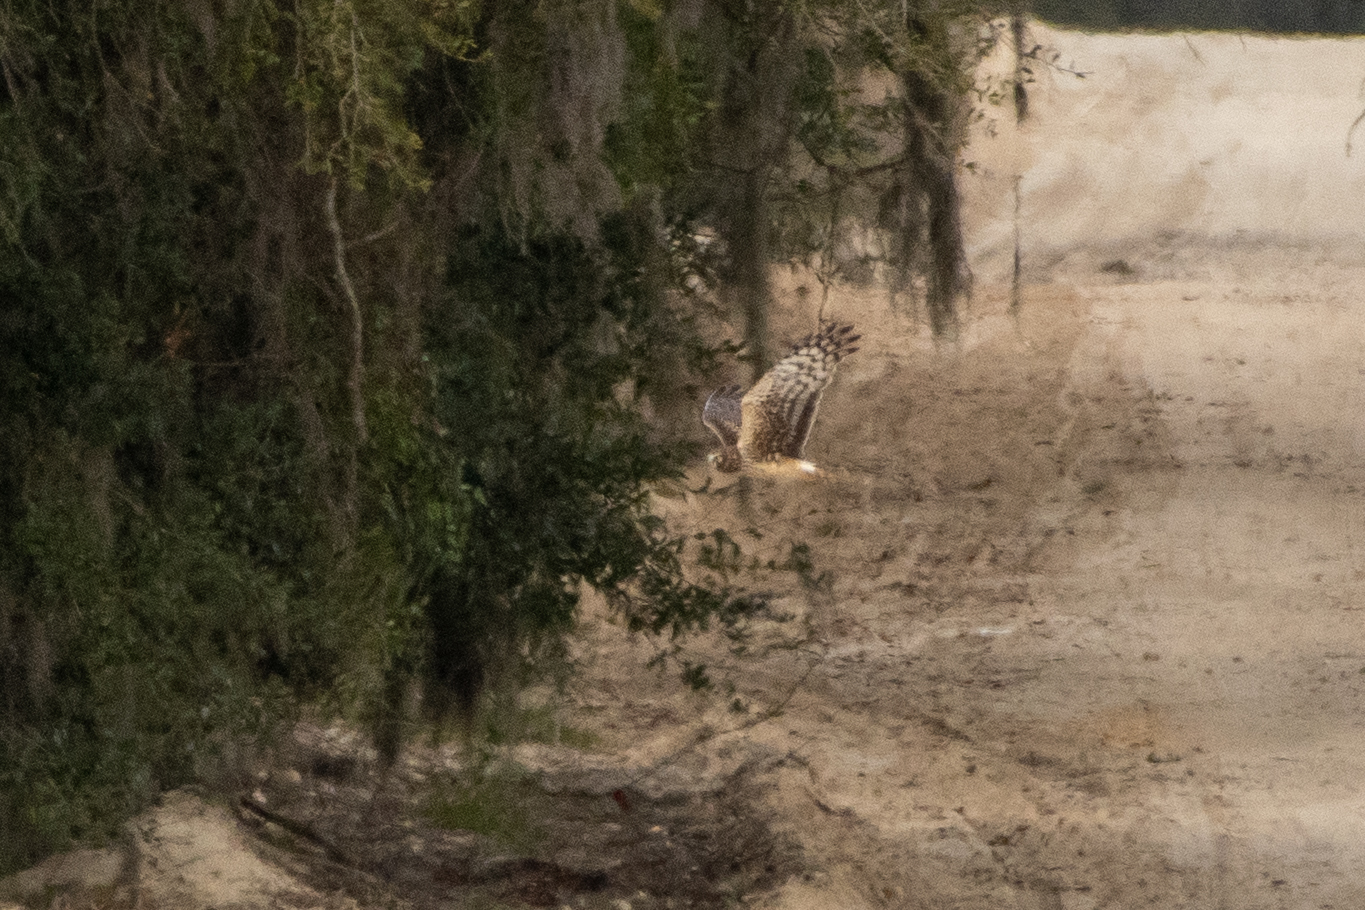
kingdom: Animalia
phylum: Chordata
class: Aves
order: Accipitriformes
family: Accipitridae
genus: Circus
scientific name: Circus cyaneus
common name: Hen harrier
